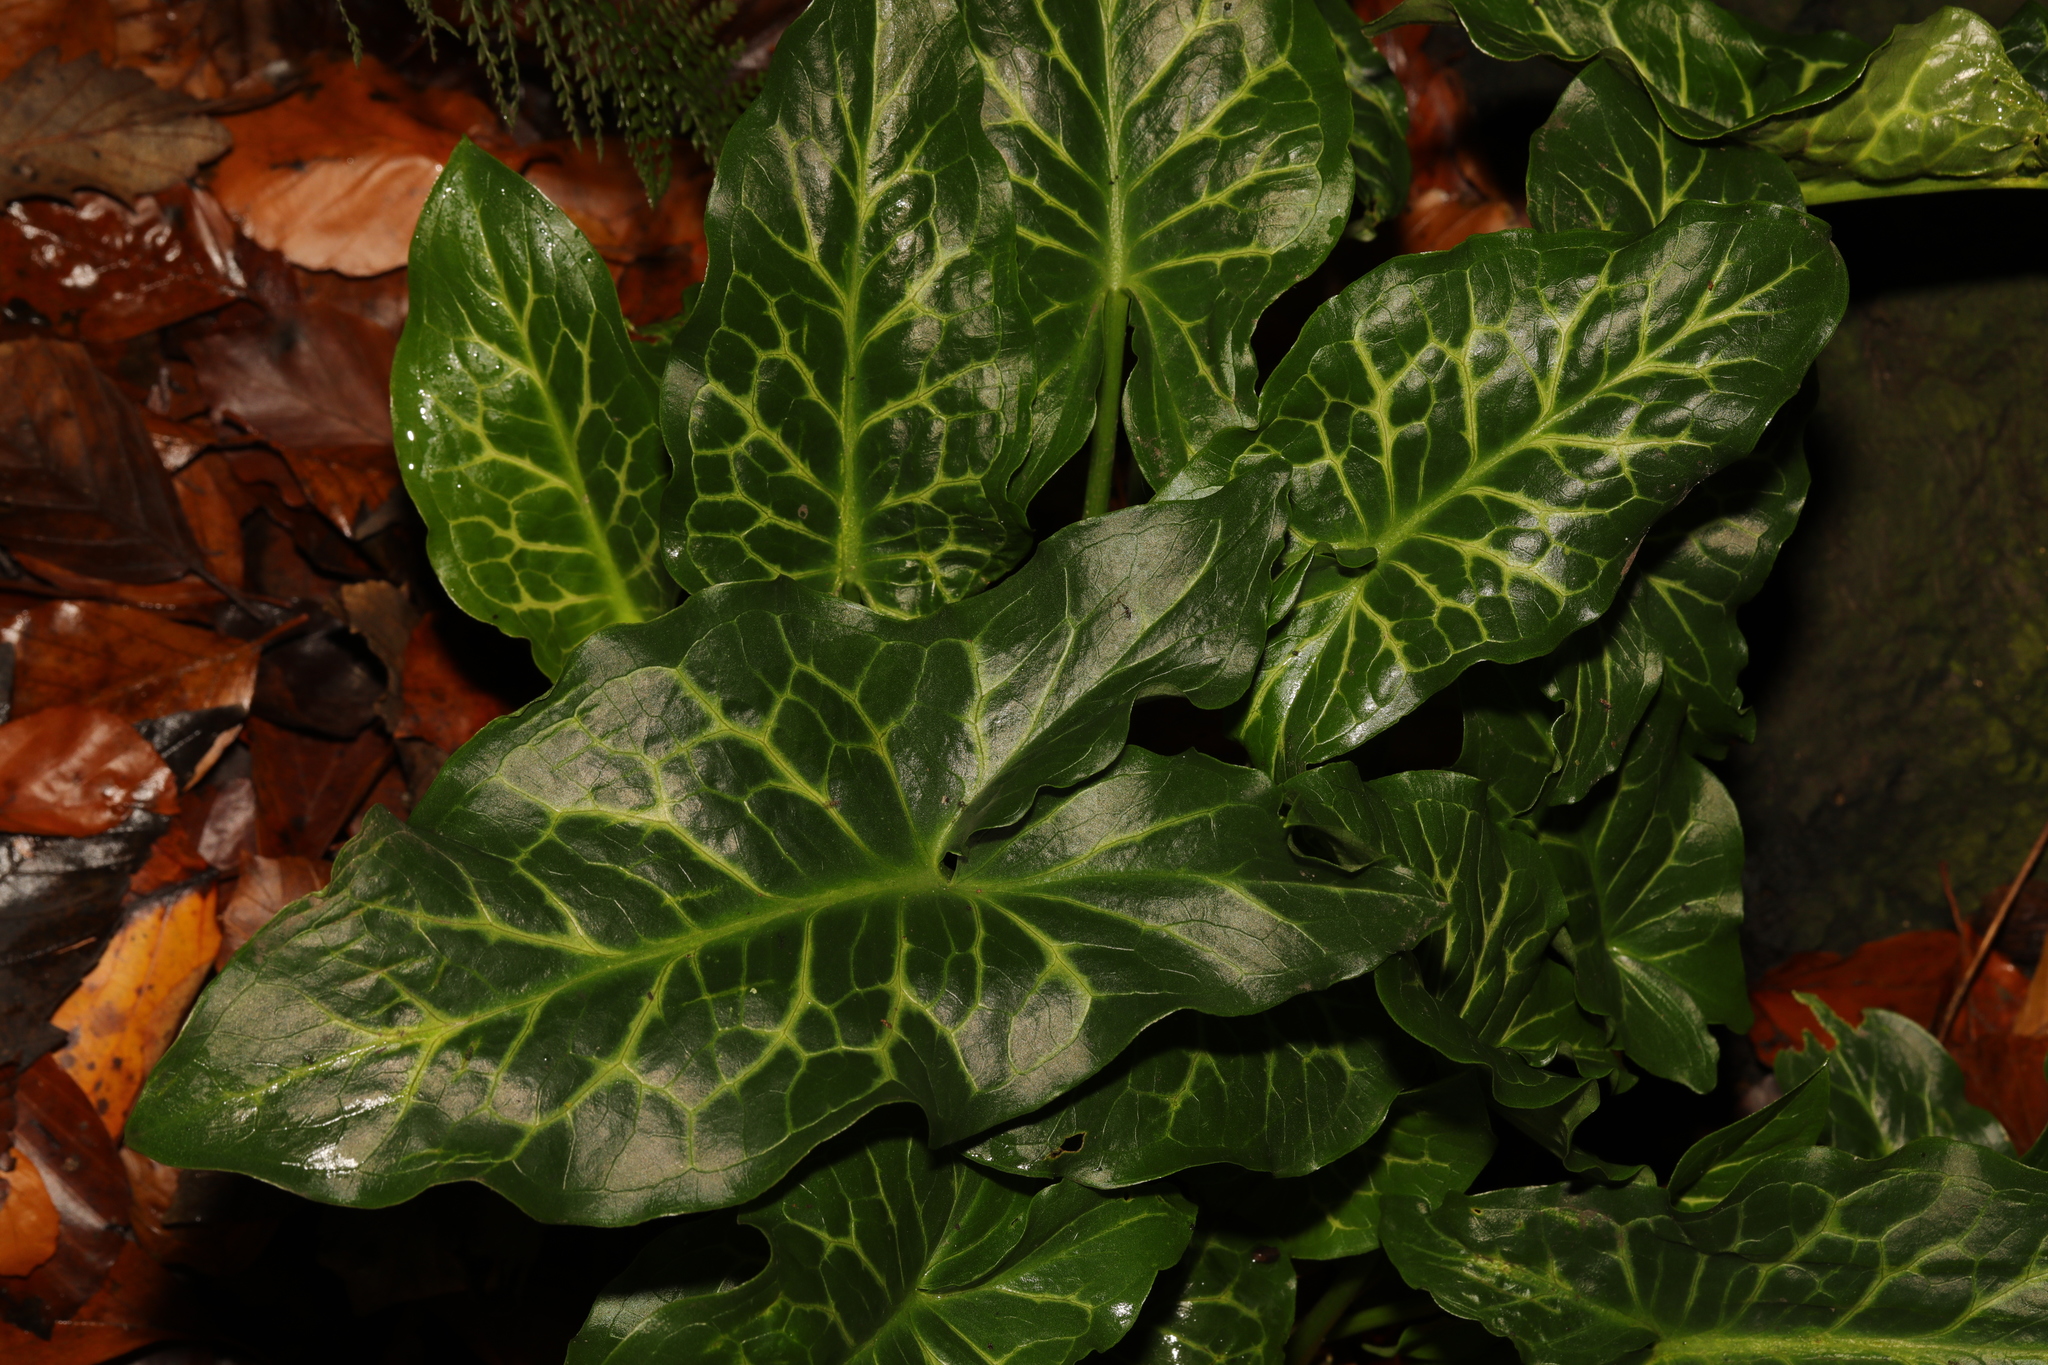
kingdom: Plantae
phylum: Tracheophyta
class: Liliopsida
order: Alismatales
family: Araceae
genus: Arum
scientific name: Arum italicum
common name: Italian lords-and-ladies
